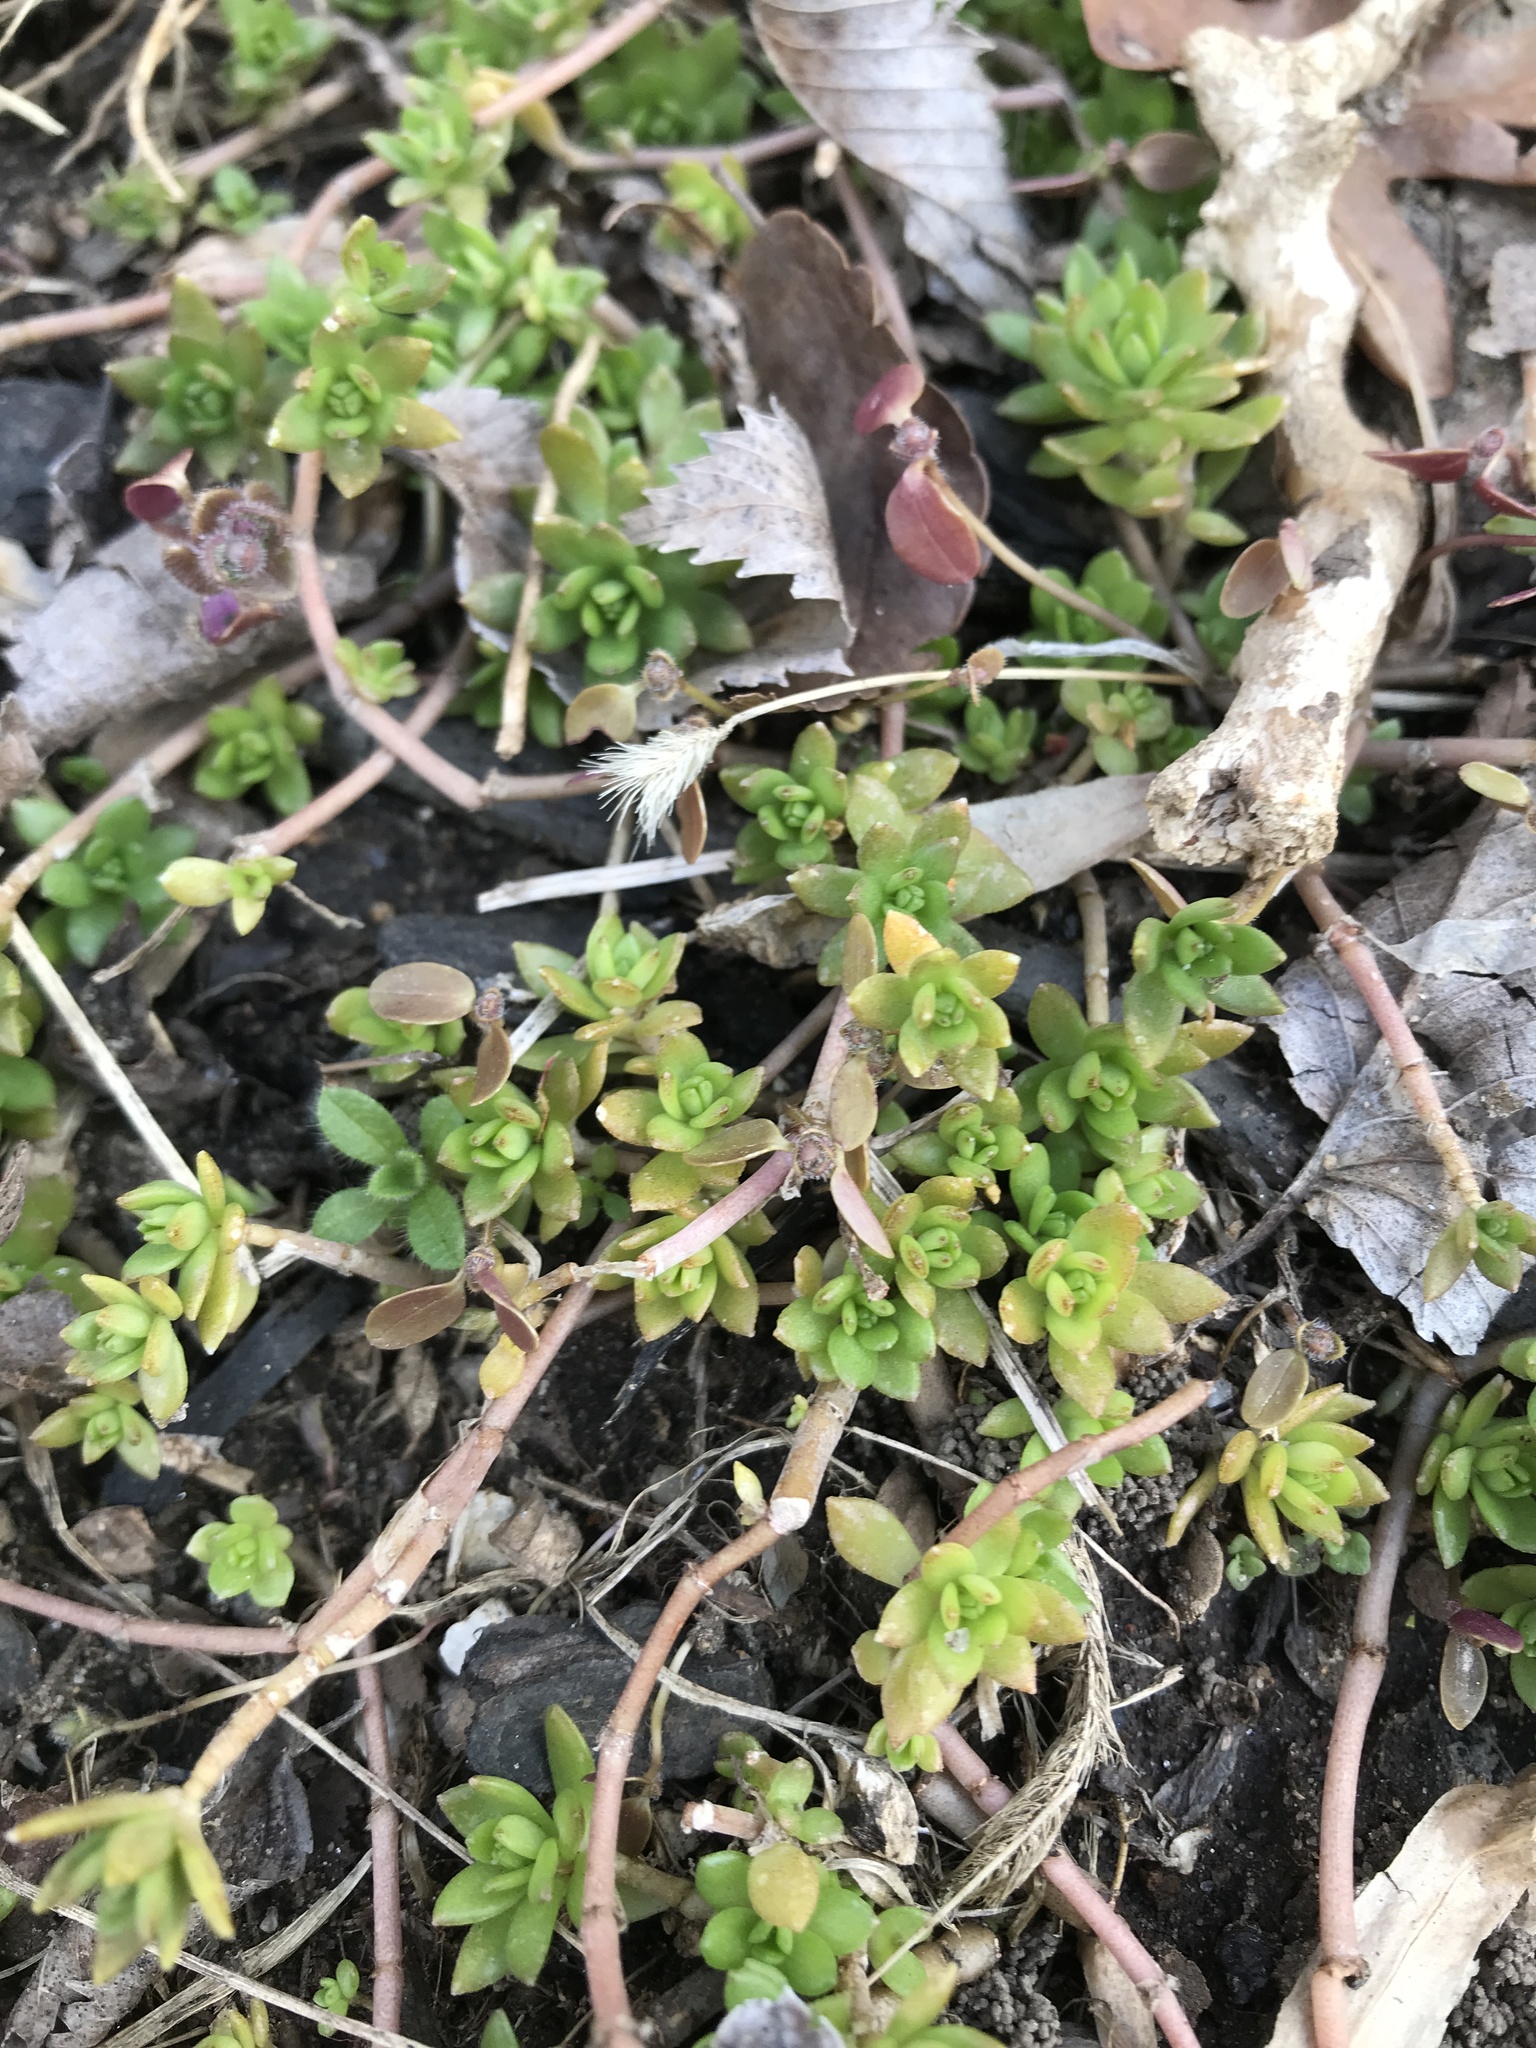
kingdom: Plantae
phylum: Tracheophyta
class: Magnoliopsida
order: Saxifragales
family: Crassulaceae
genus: Sedum
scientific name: Sedum sarmentosum
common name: Stringy stonecrop
